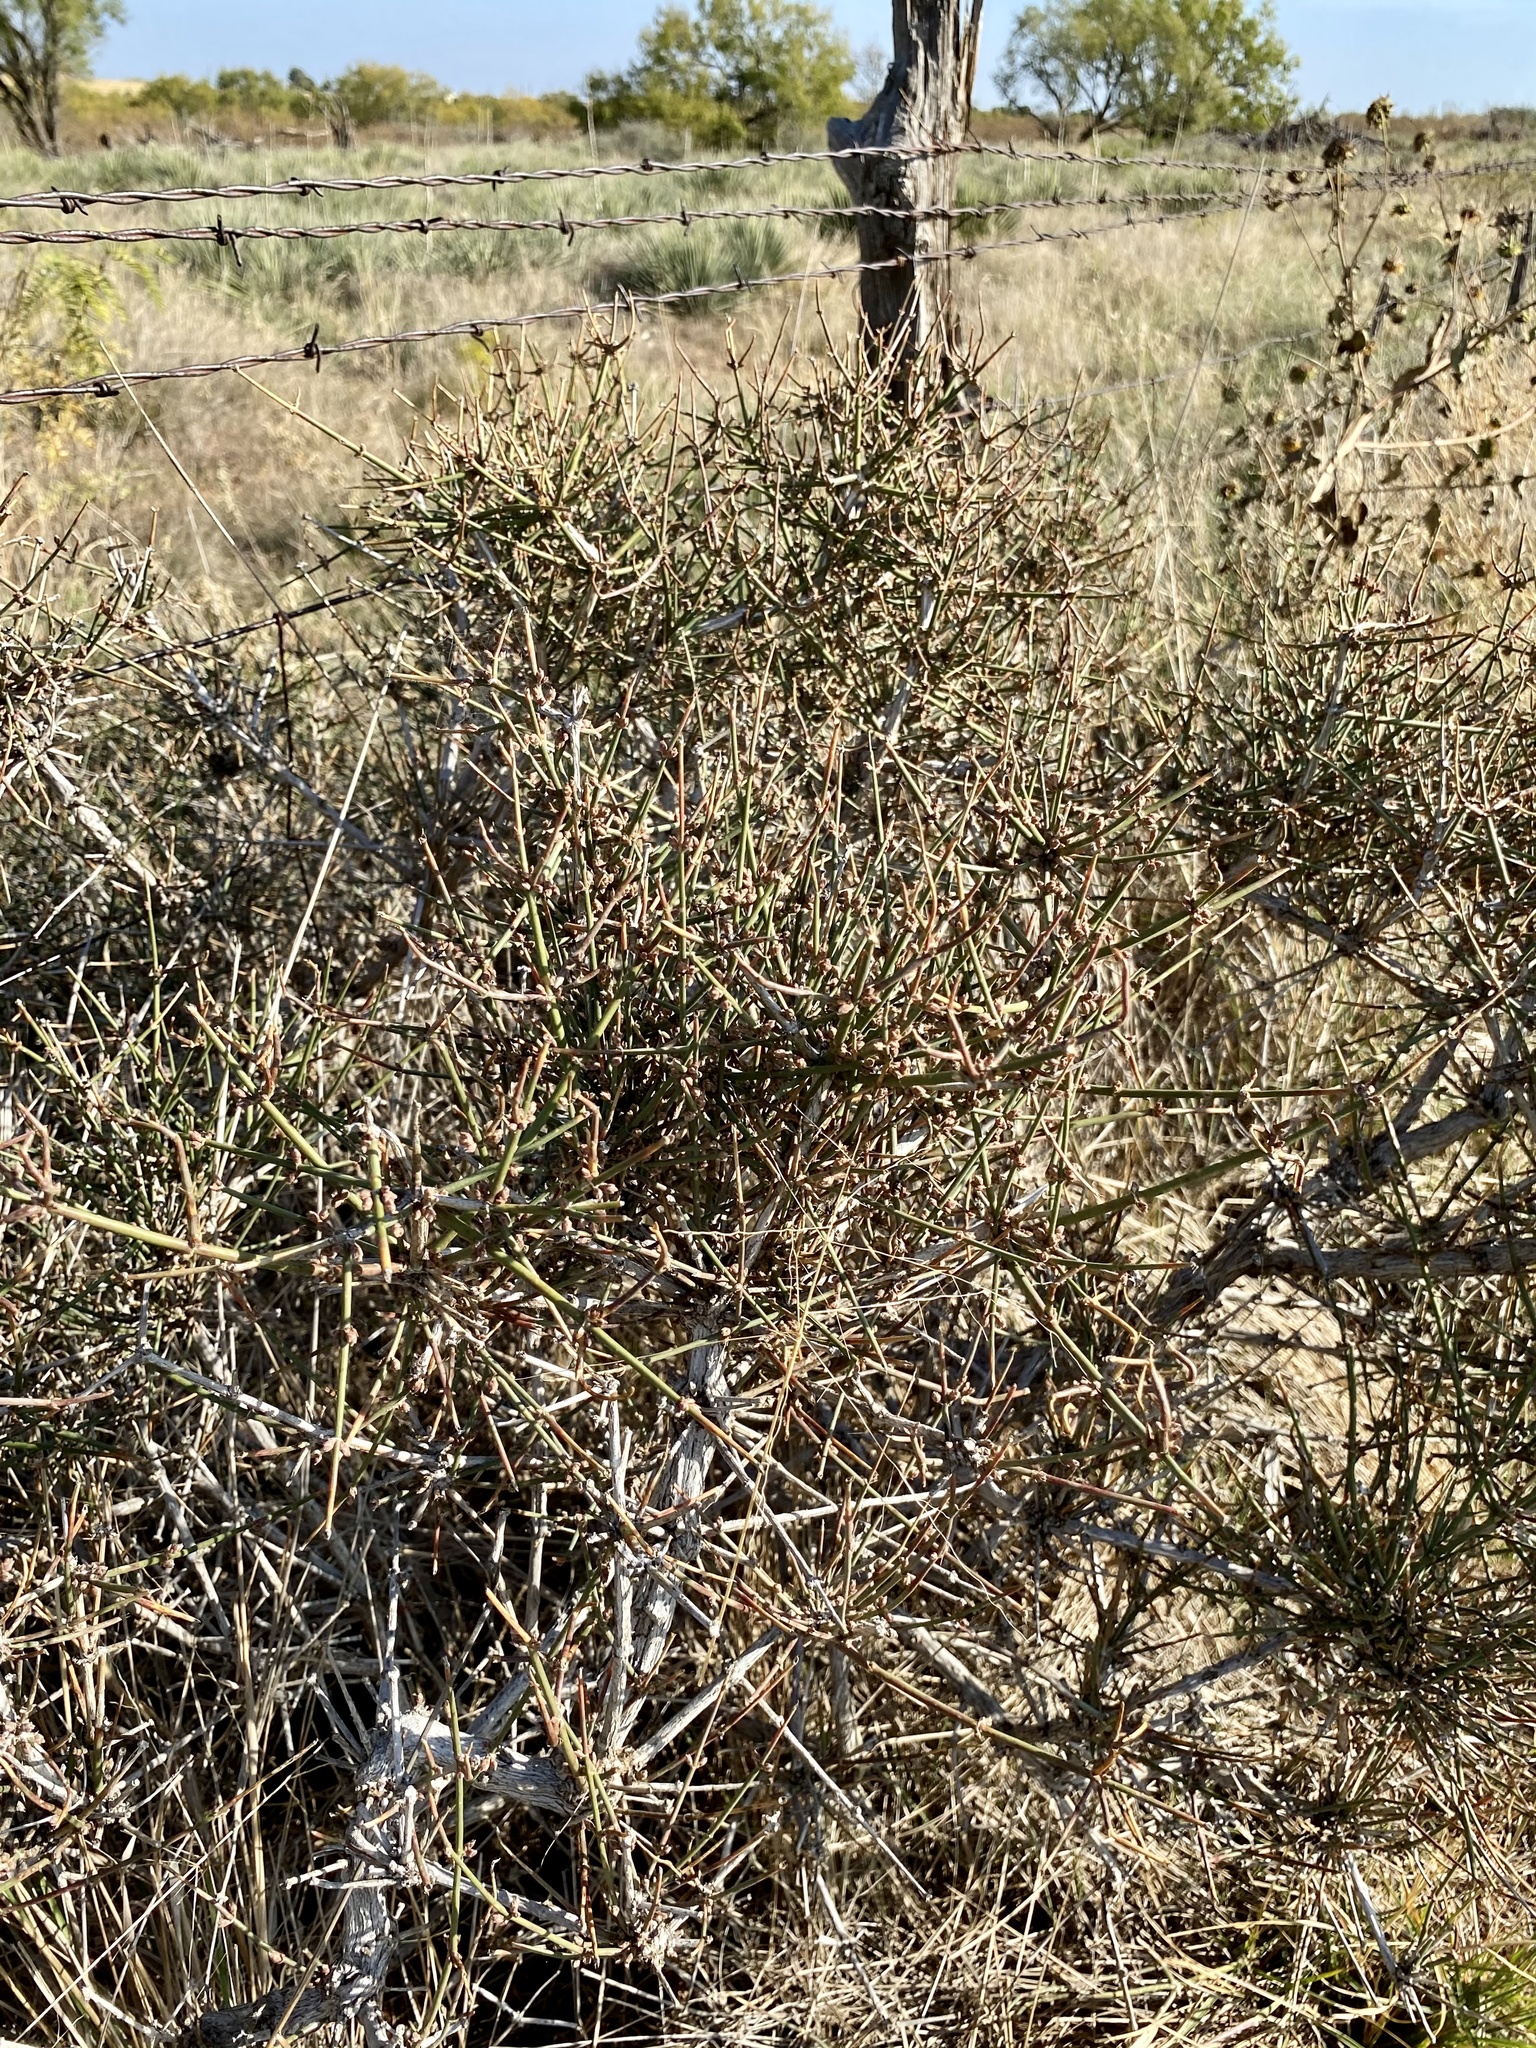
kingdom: Plantae
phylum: Tracheophyta
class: Gnetopsida
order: Ephedrales
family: Ephedraceae
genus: Ephedra
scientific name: Ephedra antisyphilitica
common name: Clipweed
